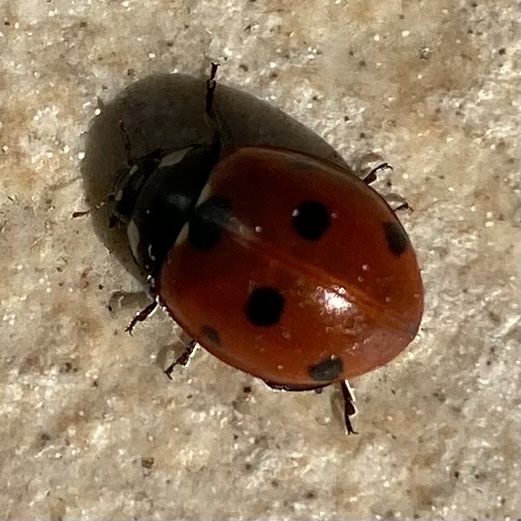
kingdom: Animalia
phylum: Arthropoda
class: Insecta
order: Coleoptera
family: Coccinellidae
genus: Coccinella
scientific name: Coccinella septempunctata
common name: Sevenspotted lady beetle
